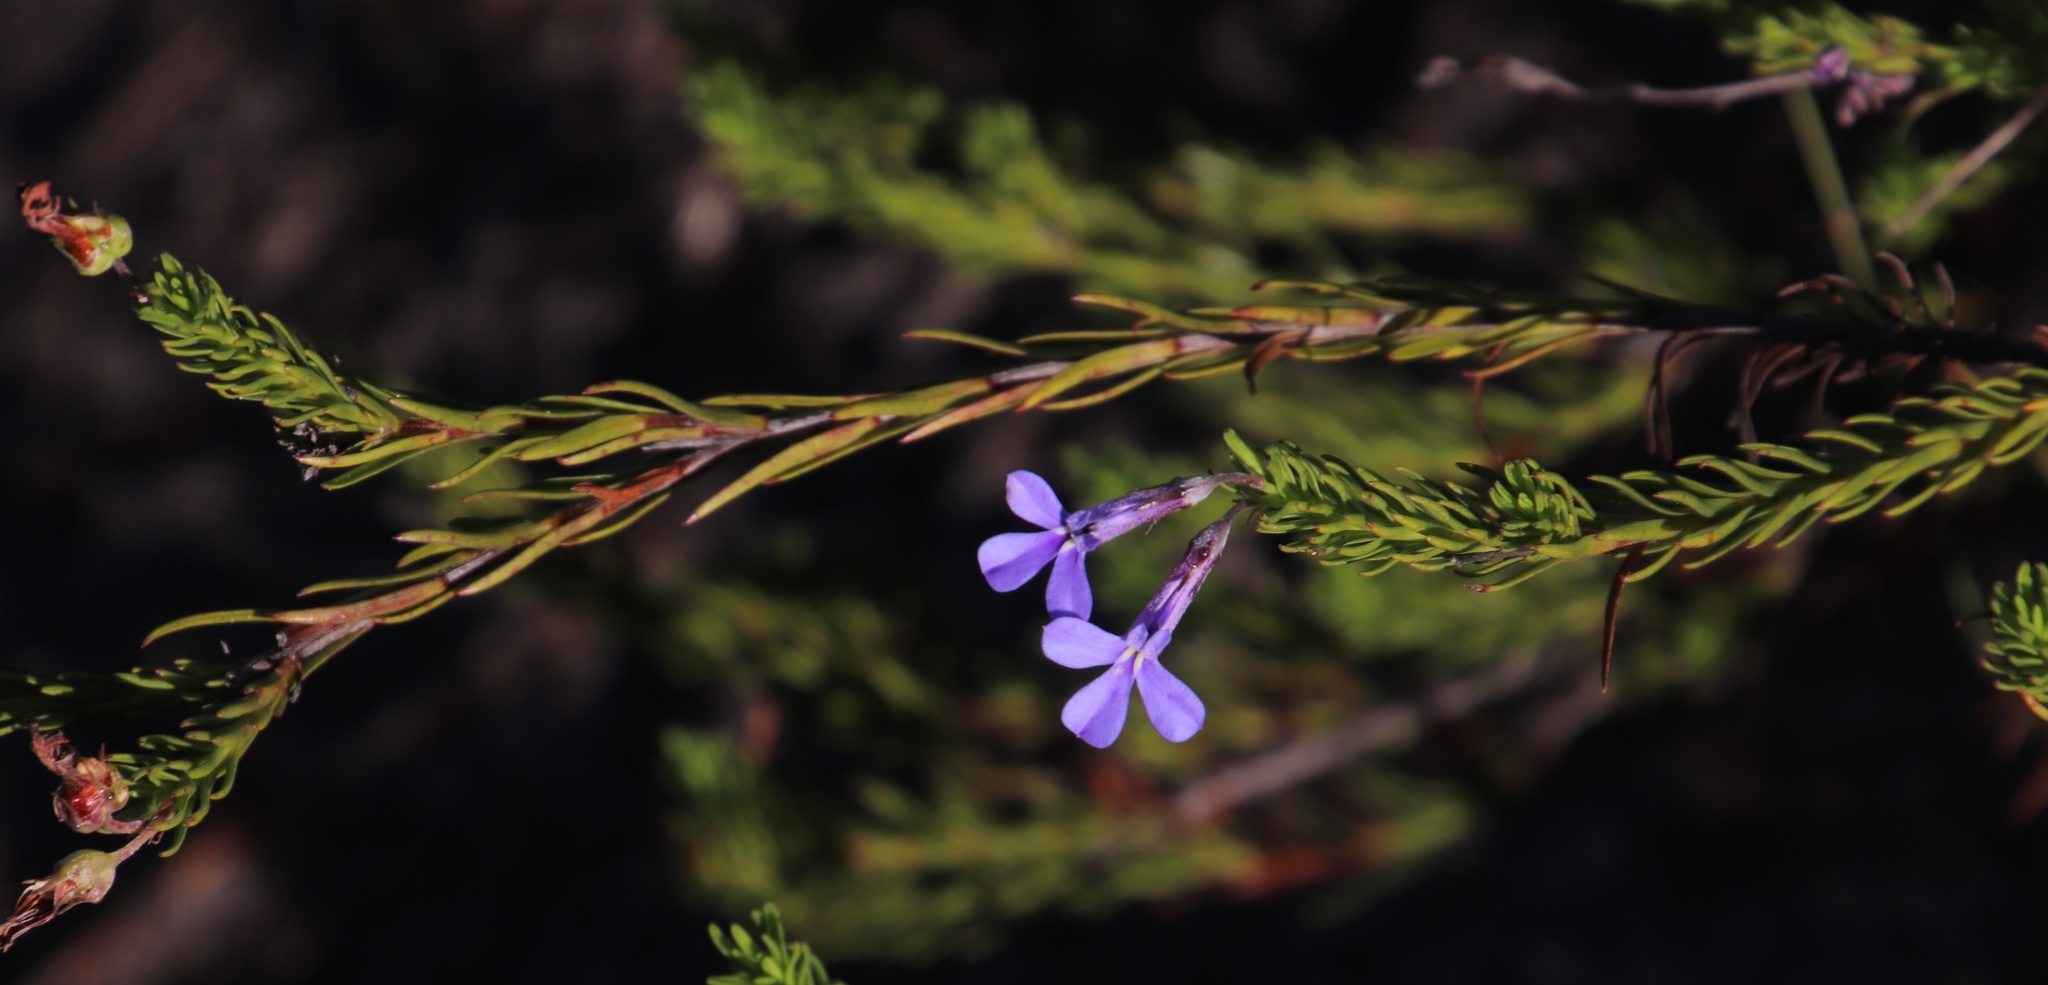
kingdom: Plantae
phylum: Tracheophyta
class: Magnoliopsida
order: Asterales
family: Campanulaceae
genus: Lobelia
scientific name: Lobelia pinifolia
